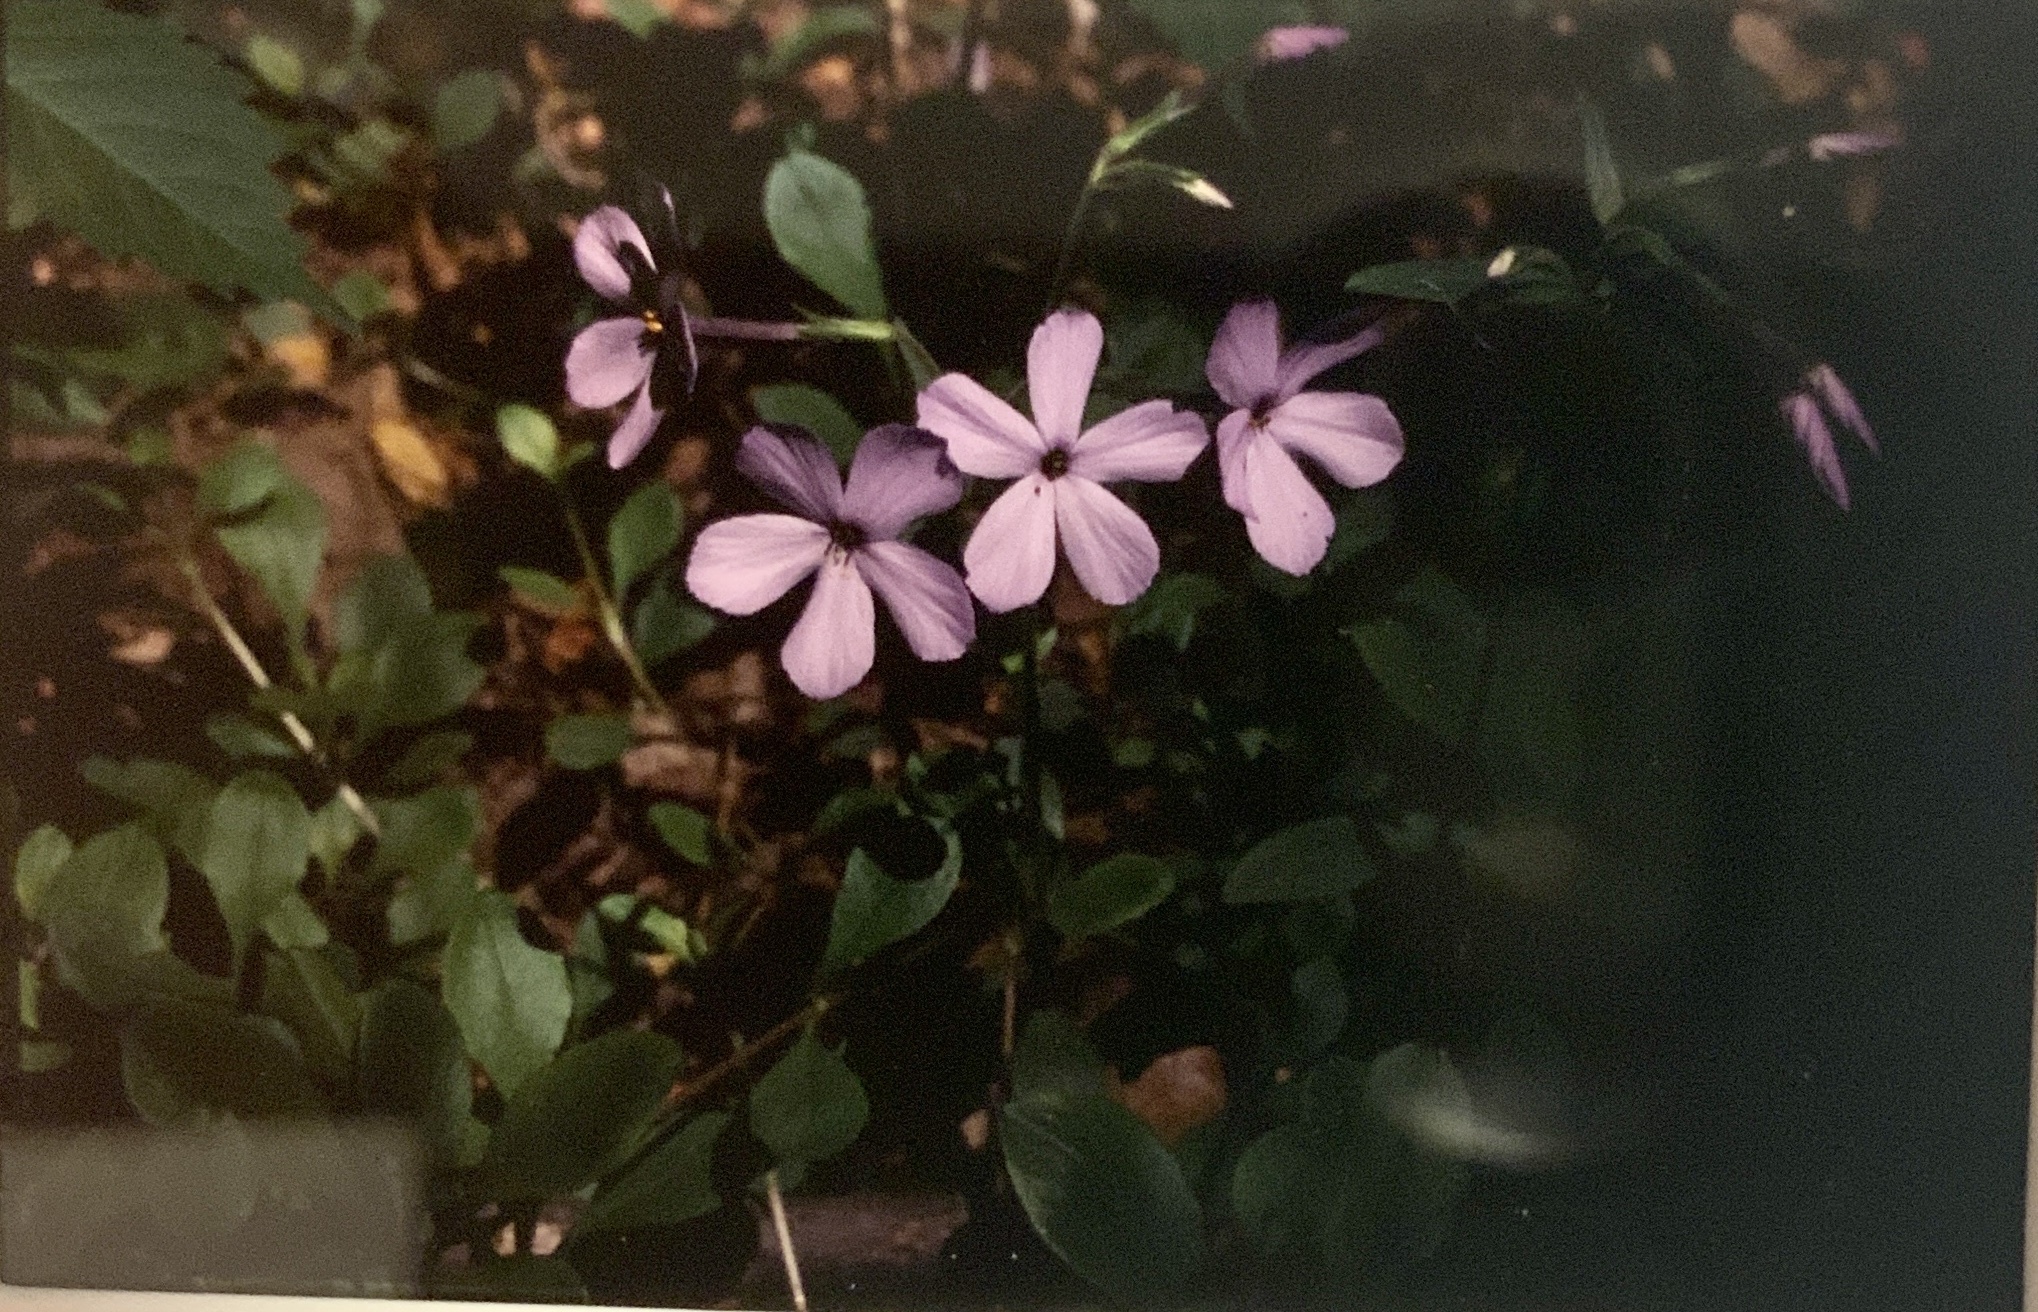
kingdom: Plantae
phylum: Tracheophyta
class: Magnoliopsida
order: Ericales
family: Polemoniaceae
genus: Phlox
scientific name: Phlox stolonifera
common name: Creeping phlox
